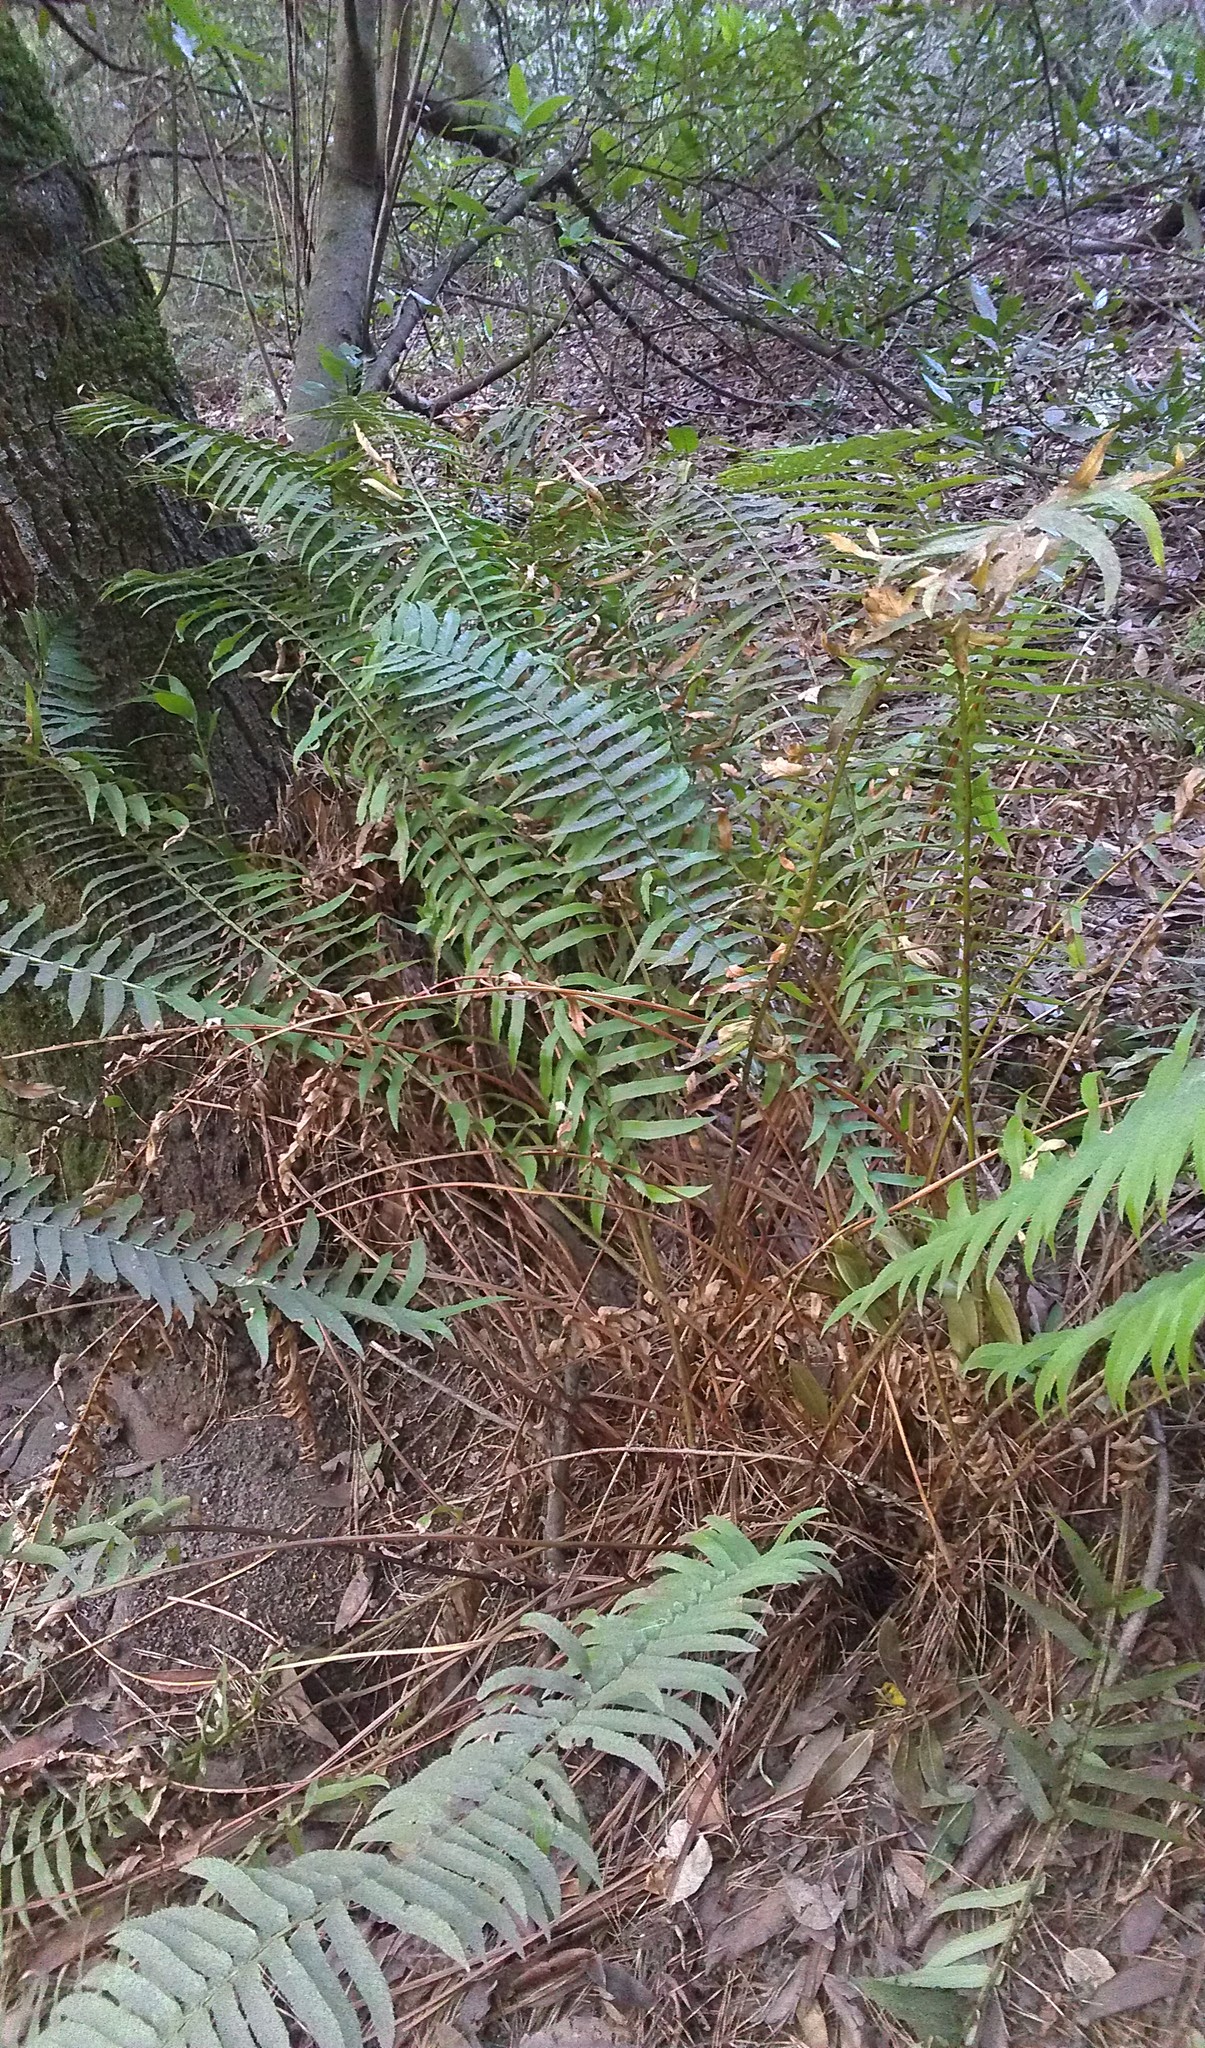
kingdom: Plantae
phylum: Tracheophyta
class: Polypodiopsida
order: Polypodiales
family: Dryopteridaceae
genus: Polystichum
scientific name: Polystichum munitum
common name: Western sword-fern
